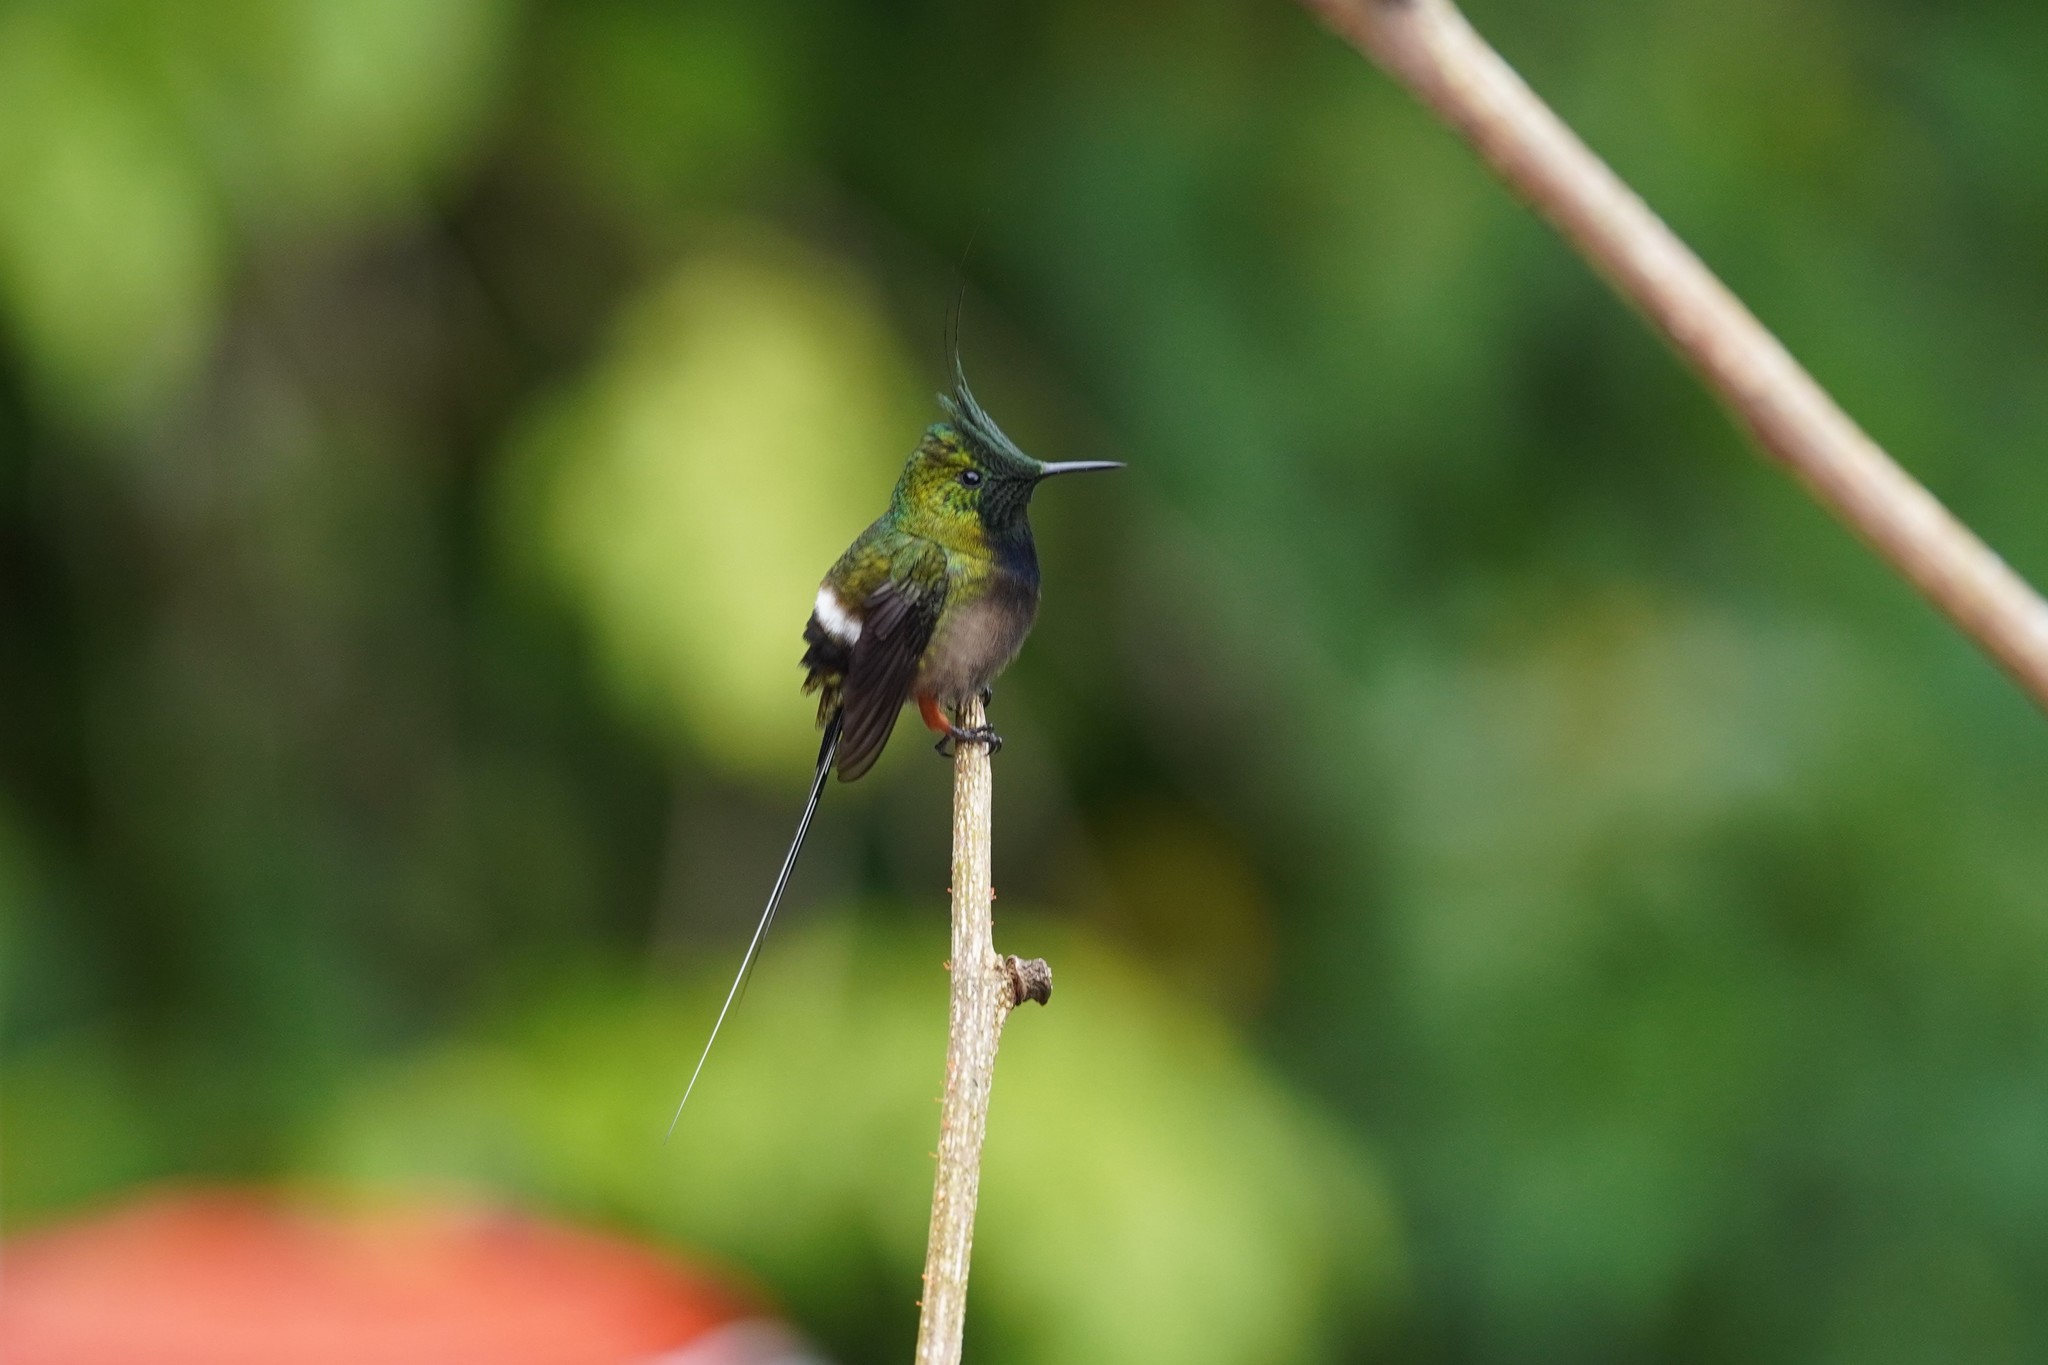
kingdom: Animalia
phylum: Chordata
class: Aves
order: Apodiformes
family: Trochilidae
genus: Discosura
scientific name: Discosura popelairii
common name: Wire-crested thorntail
